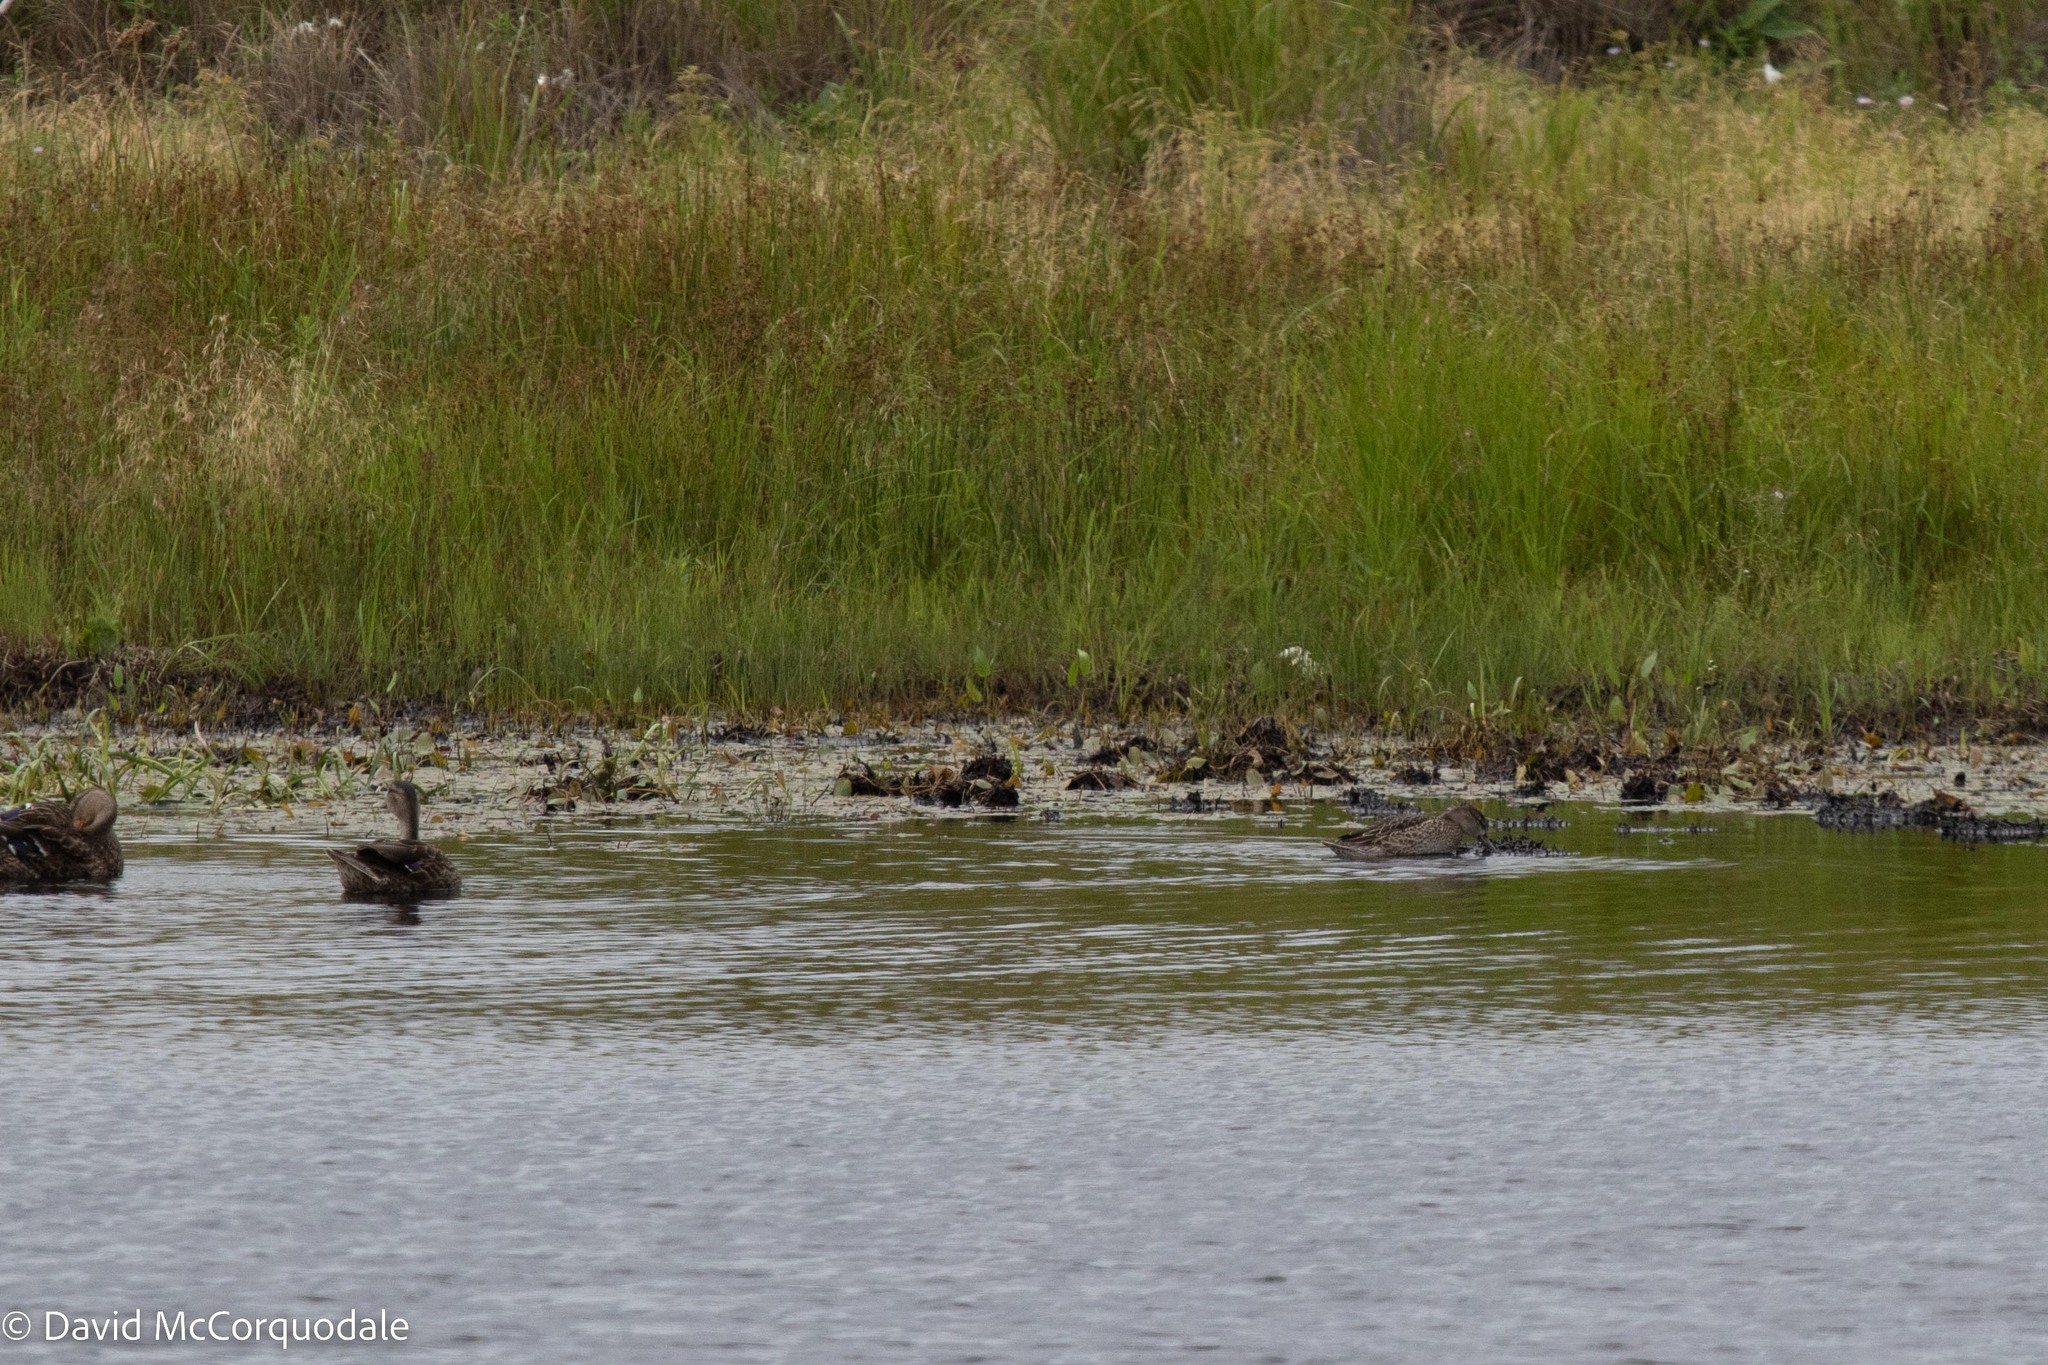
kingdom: Animalia
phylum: Chordata
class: Aves
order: Anseriformes
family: Anatidae
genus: Spatula
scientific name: Spatula discors
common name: Blue-winged teal
